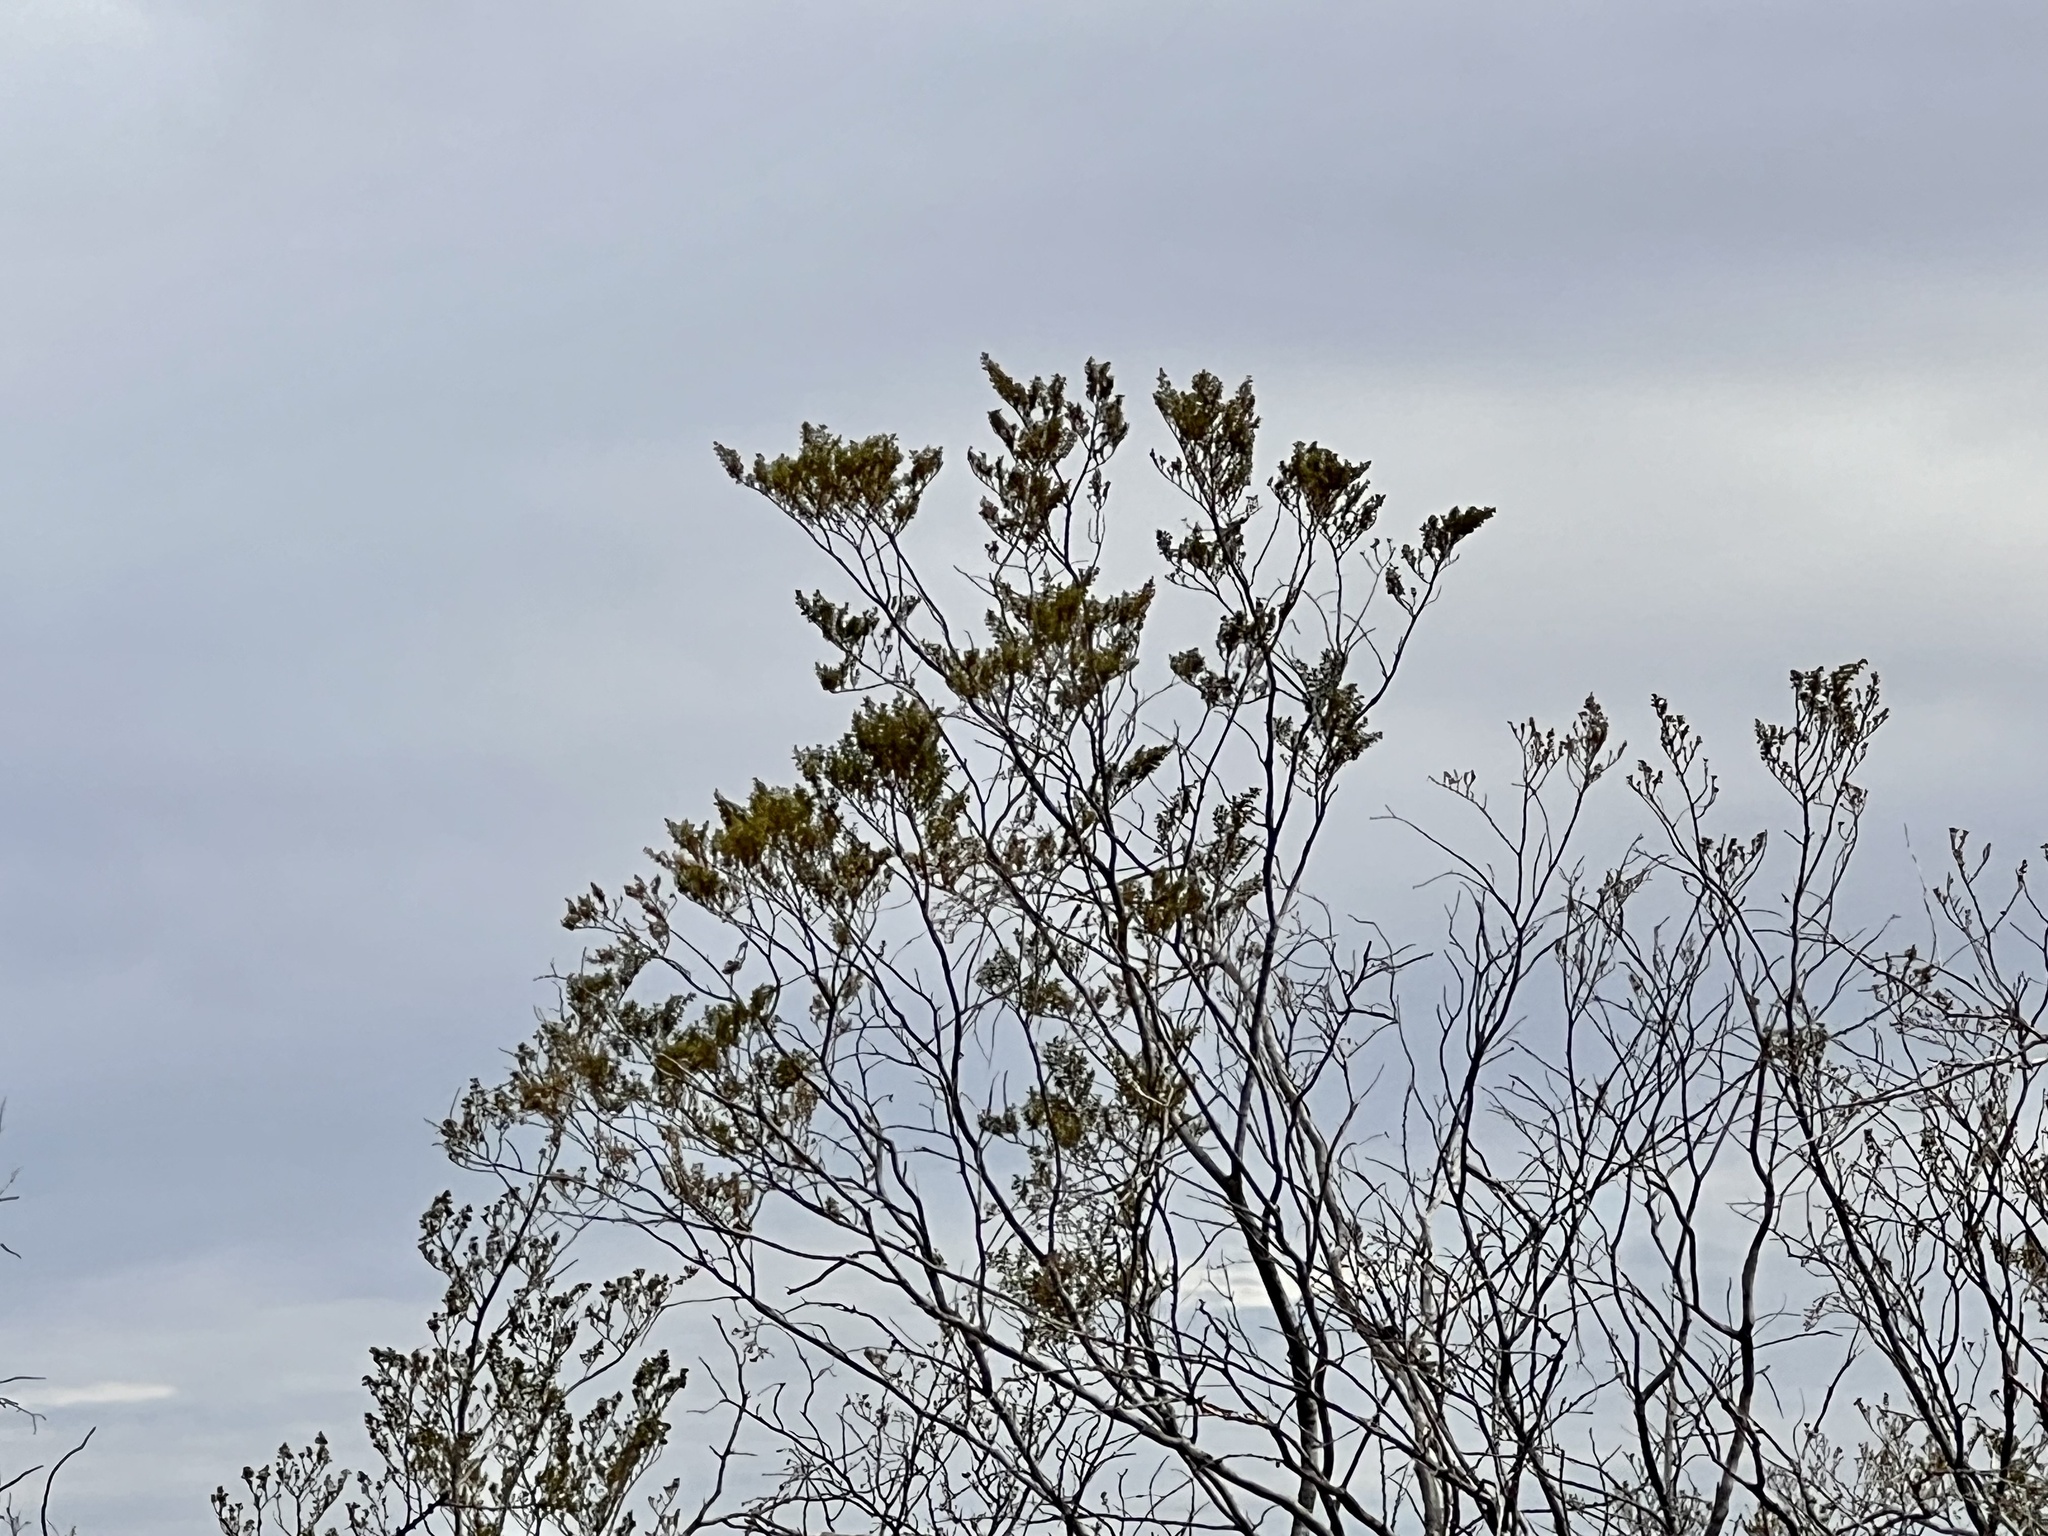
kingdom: Plantae
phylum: Tracheophyta
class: Magnoliopsida
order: Zygophyllales
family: Zygophyllaceae
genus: Larrea
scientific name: Larrea tridentata
